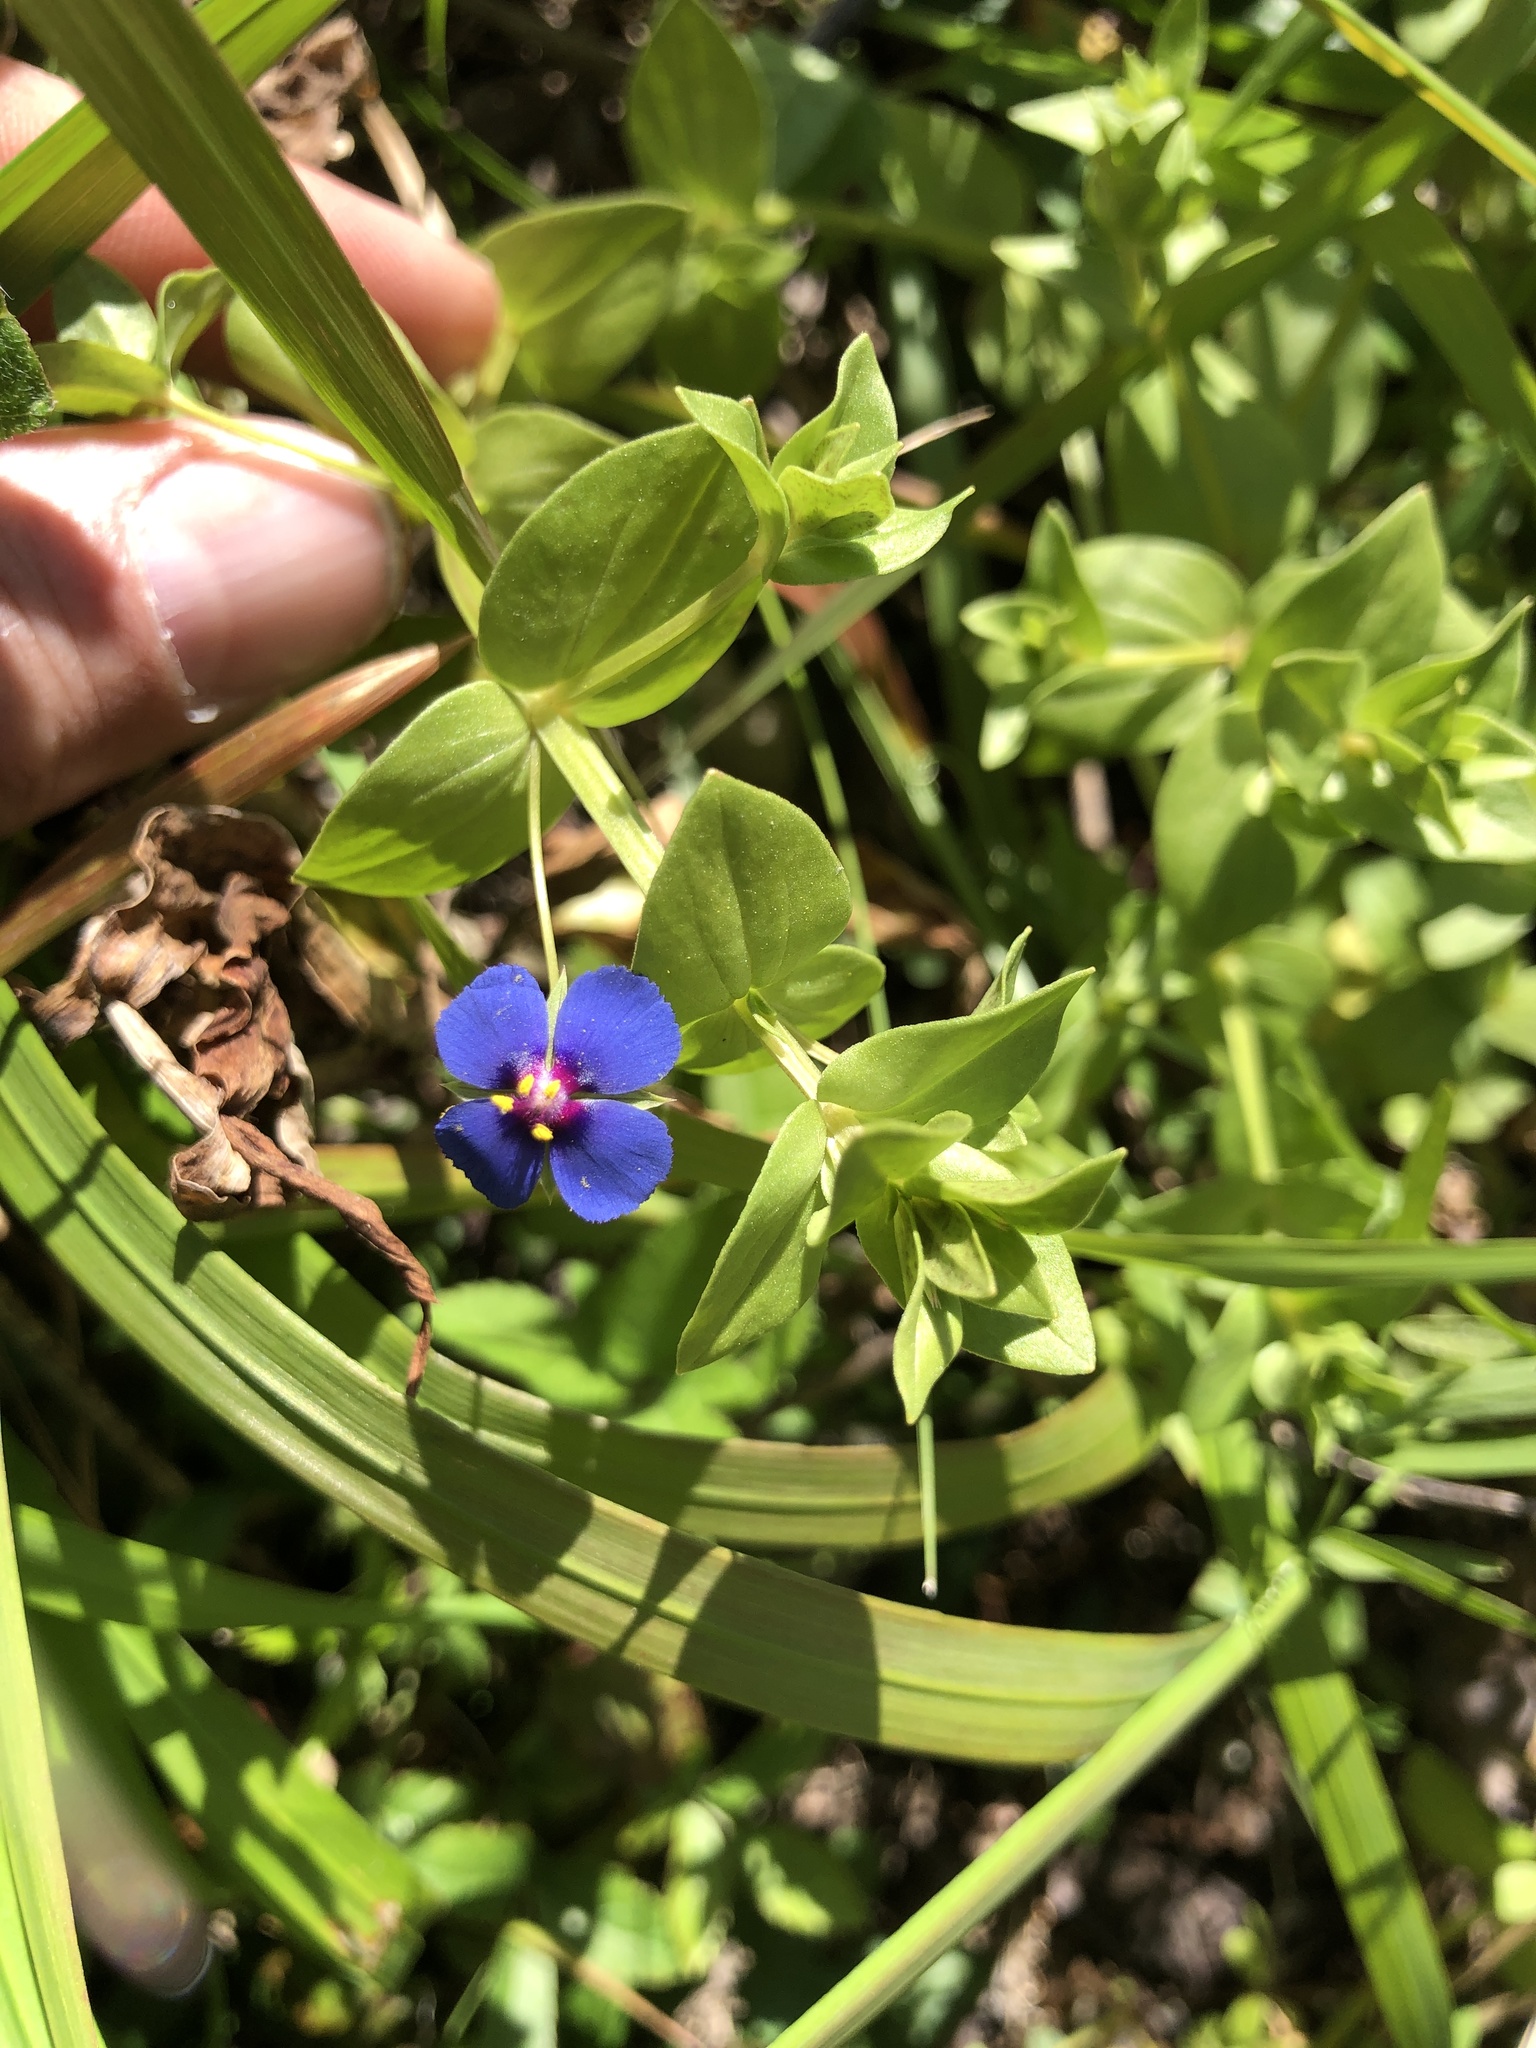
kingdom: Plantae
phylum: Tracheophyta
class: Magnoliopsida
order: Ericales
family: Primulaceae
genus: Lysimachia
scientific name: Lysimachia foemina
